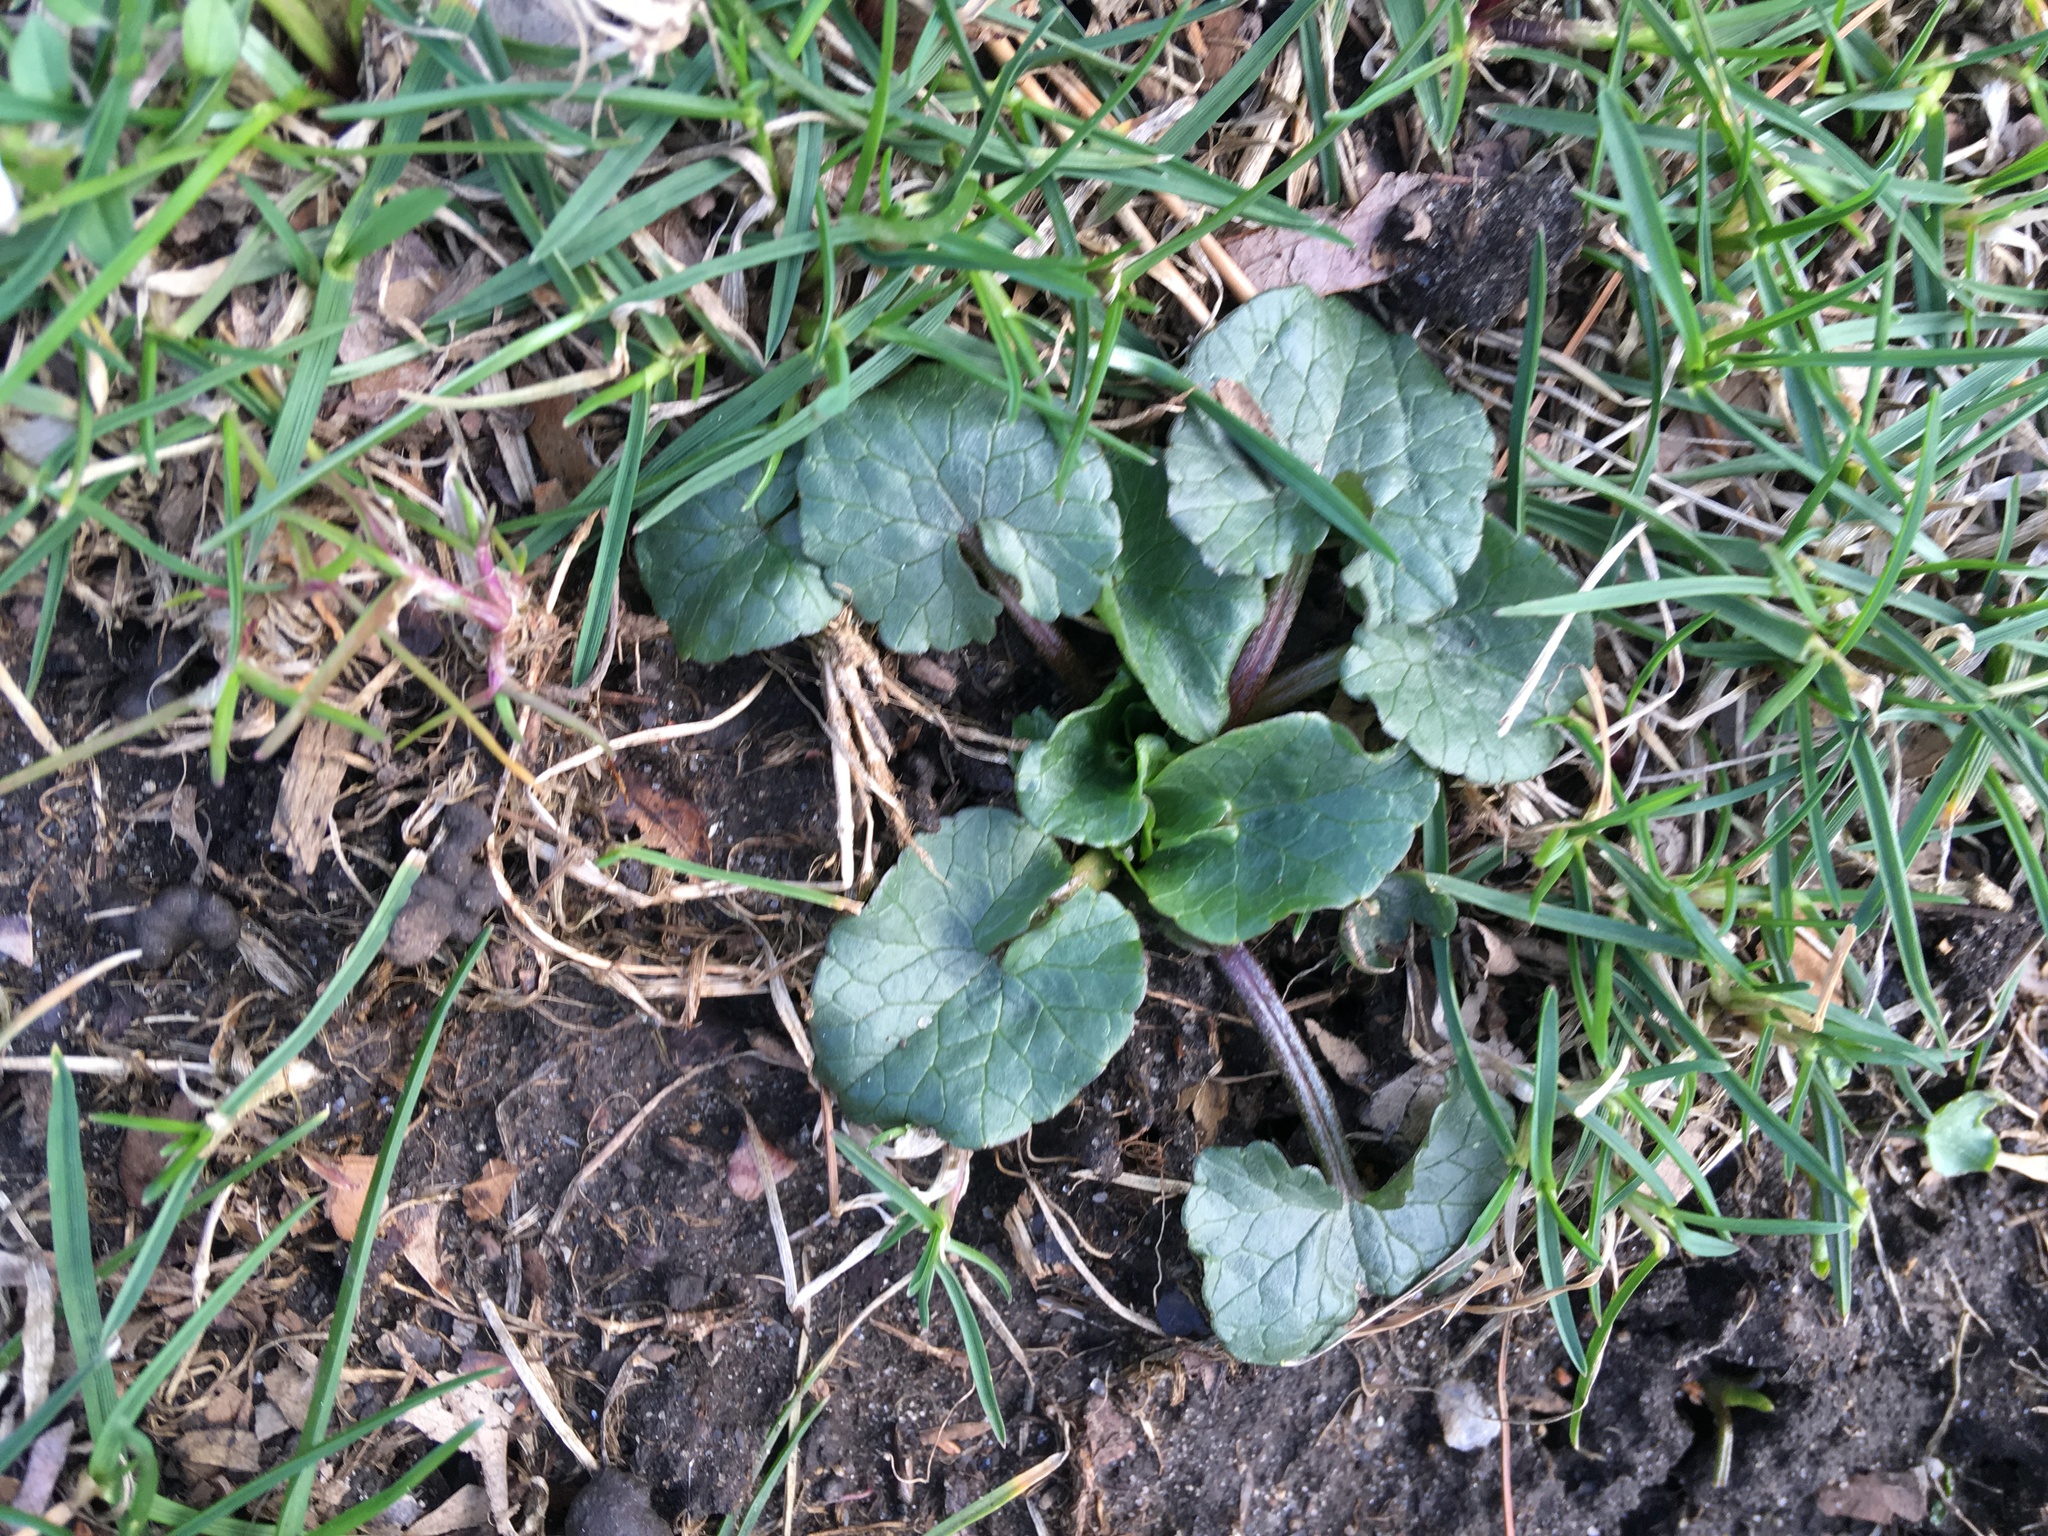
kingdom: Plantae
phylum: Tracheophyta
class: Magnoliopsida
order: Ranunculales
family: Ranunculaceae
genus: Ficaria
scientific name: Ficaria verna
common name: Lesser celandine
